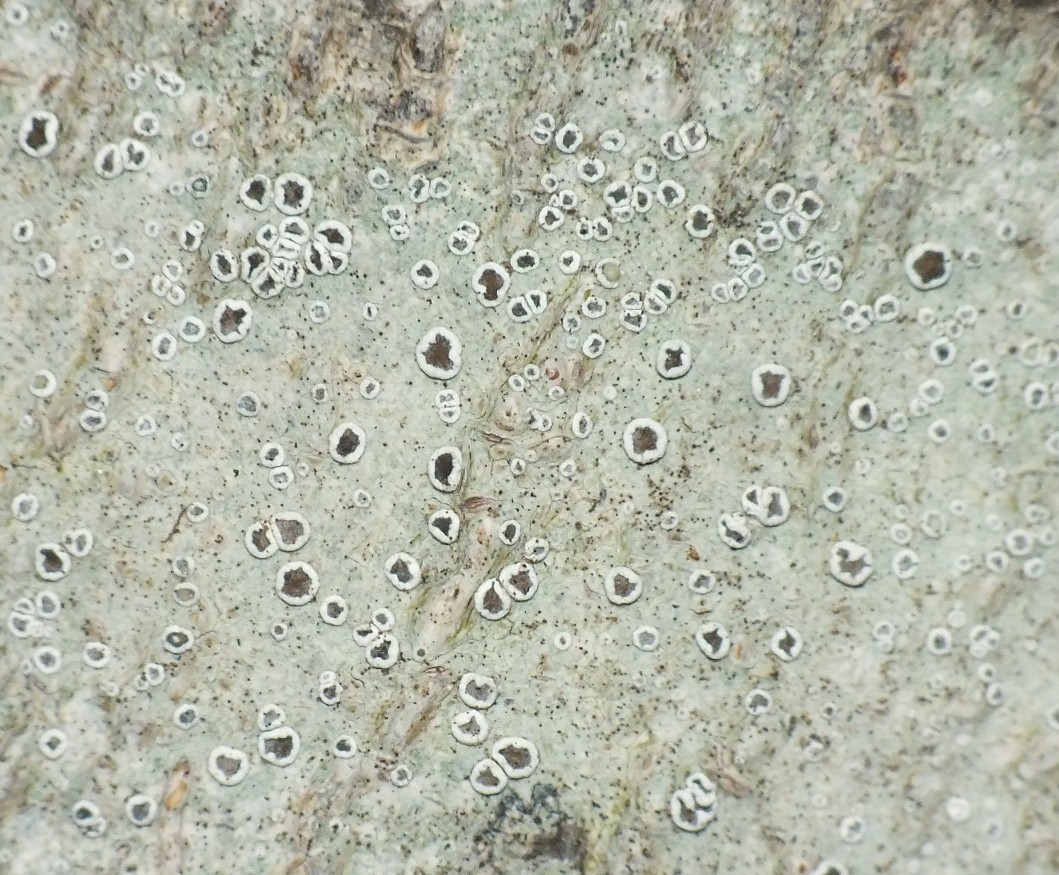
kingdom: Fungi
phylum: Ascomycota
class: Lecanoromycetes
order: Lecanorales
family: Lecanoraceae
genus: Lecanora
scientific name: Lecanora intumescens
